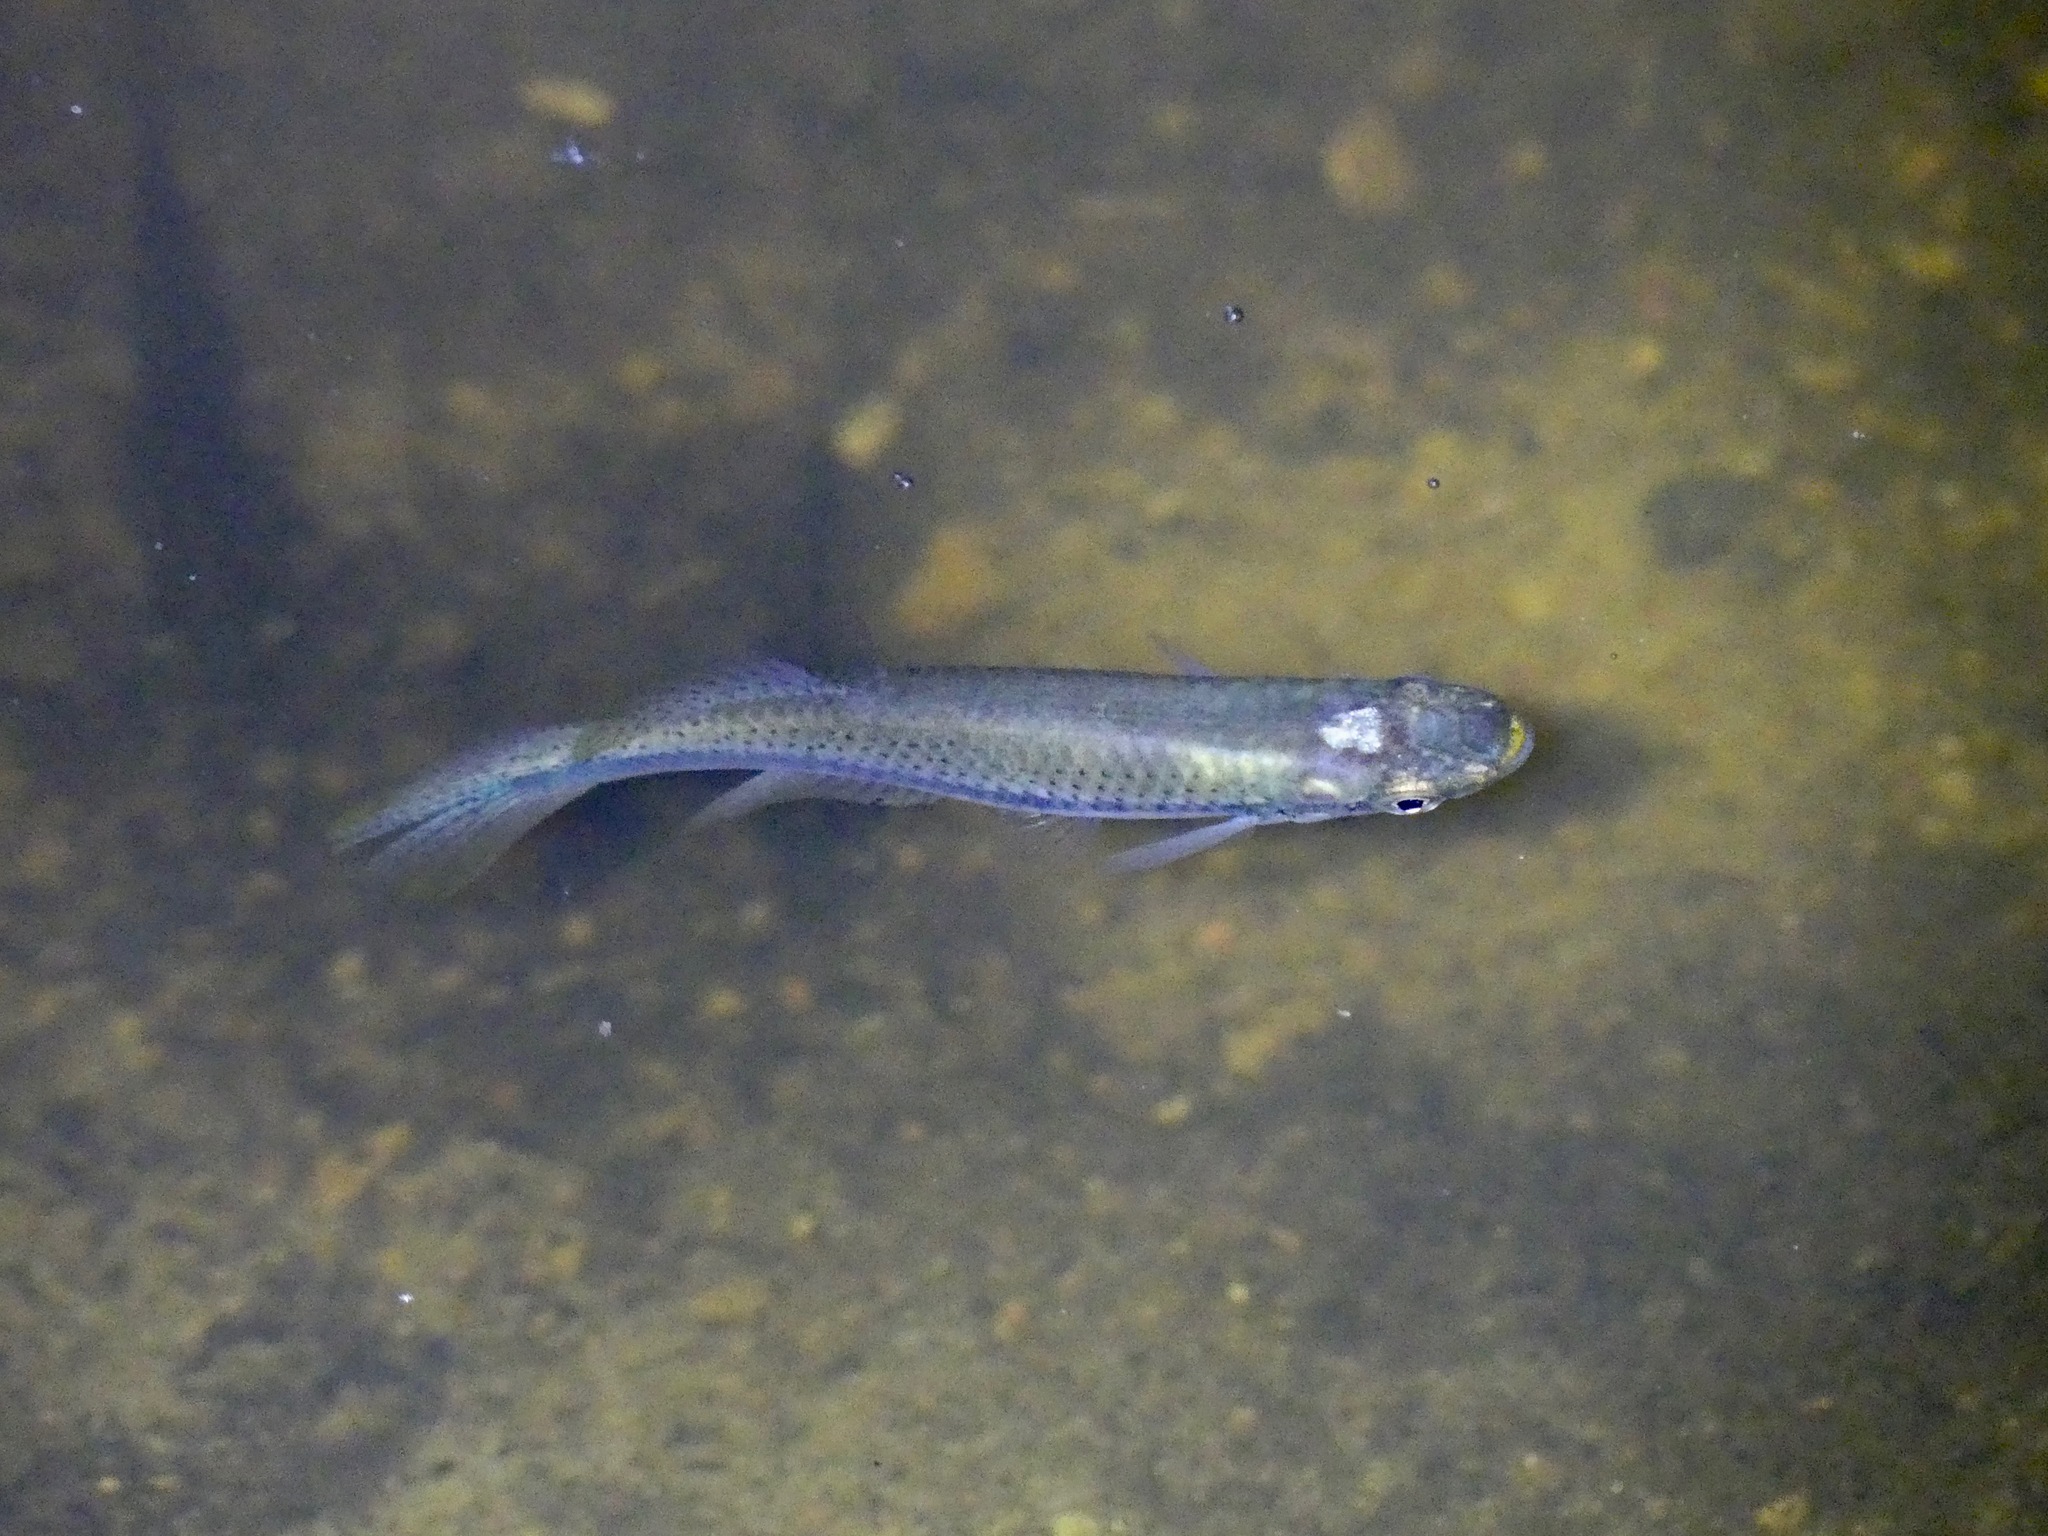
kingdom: Animalia
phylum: Chordata
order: Cyprinodontiformes
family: Fundulidae
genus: Fundulus
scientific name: Fundulus olivaceus
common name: Blackspotted topminnow
